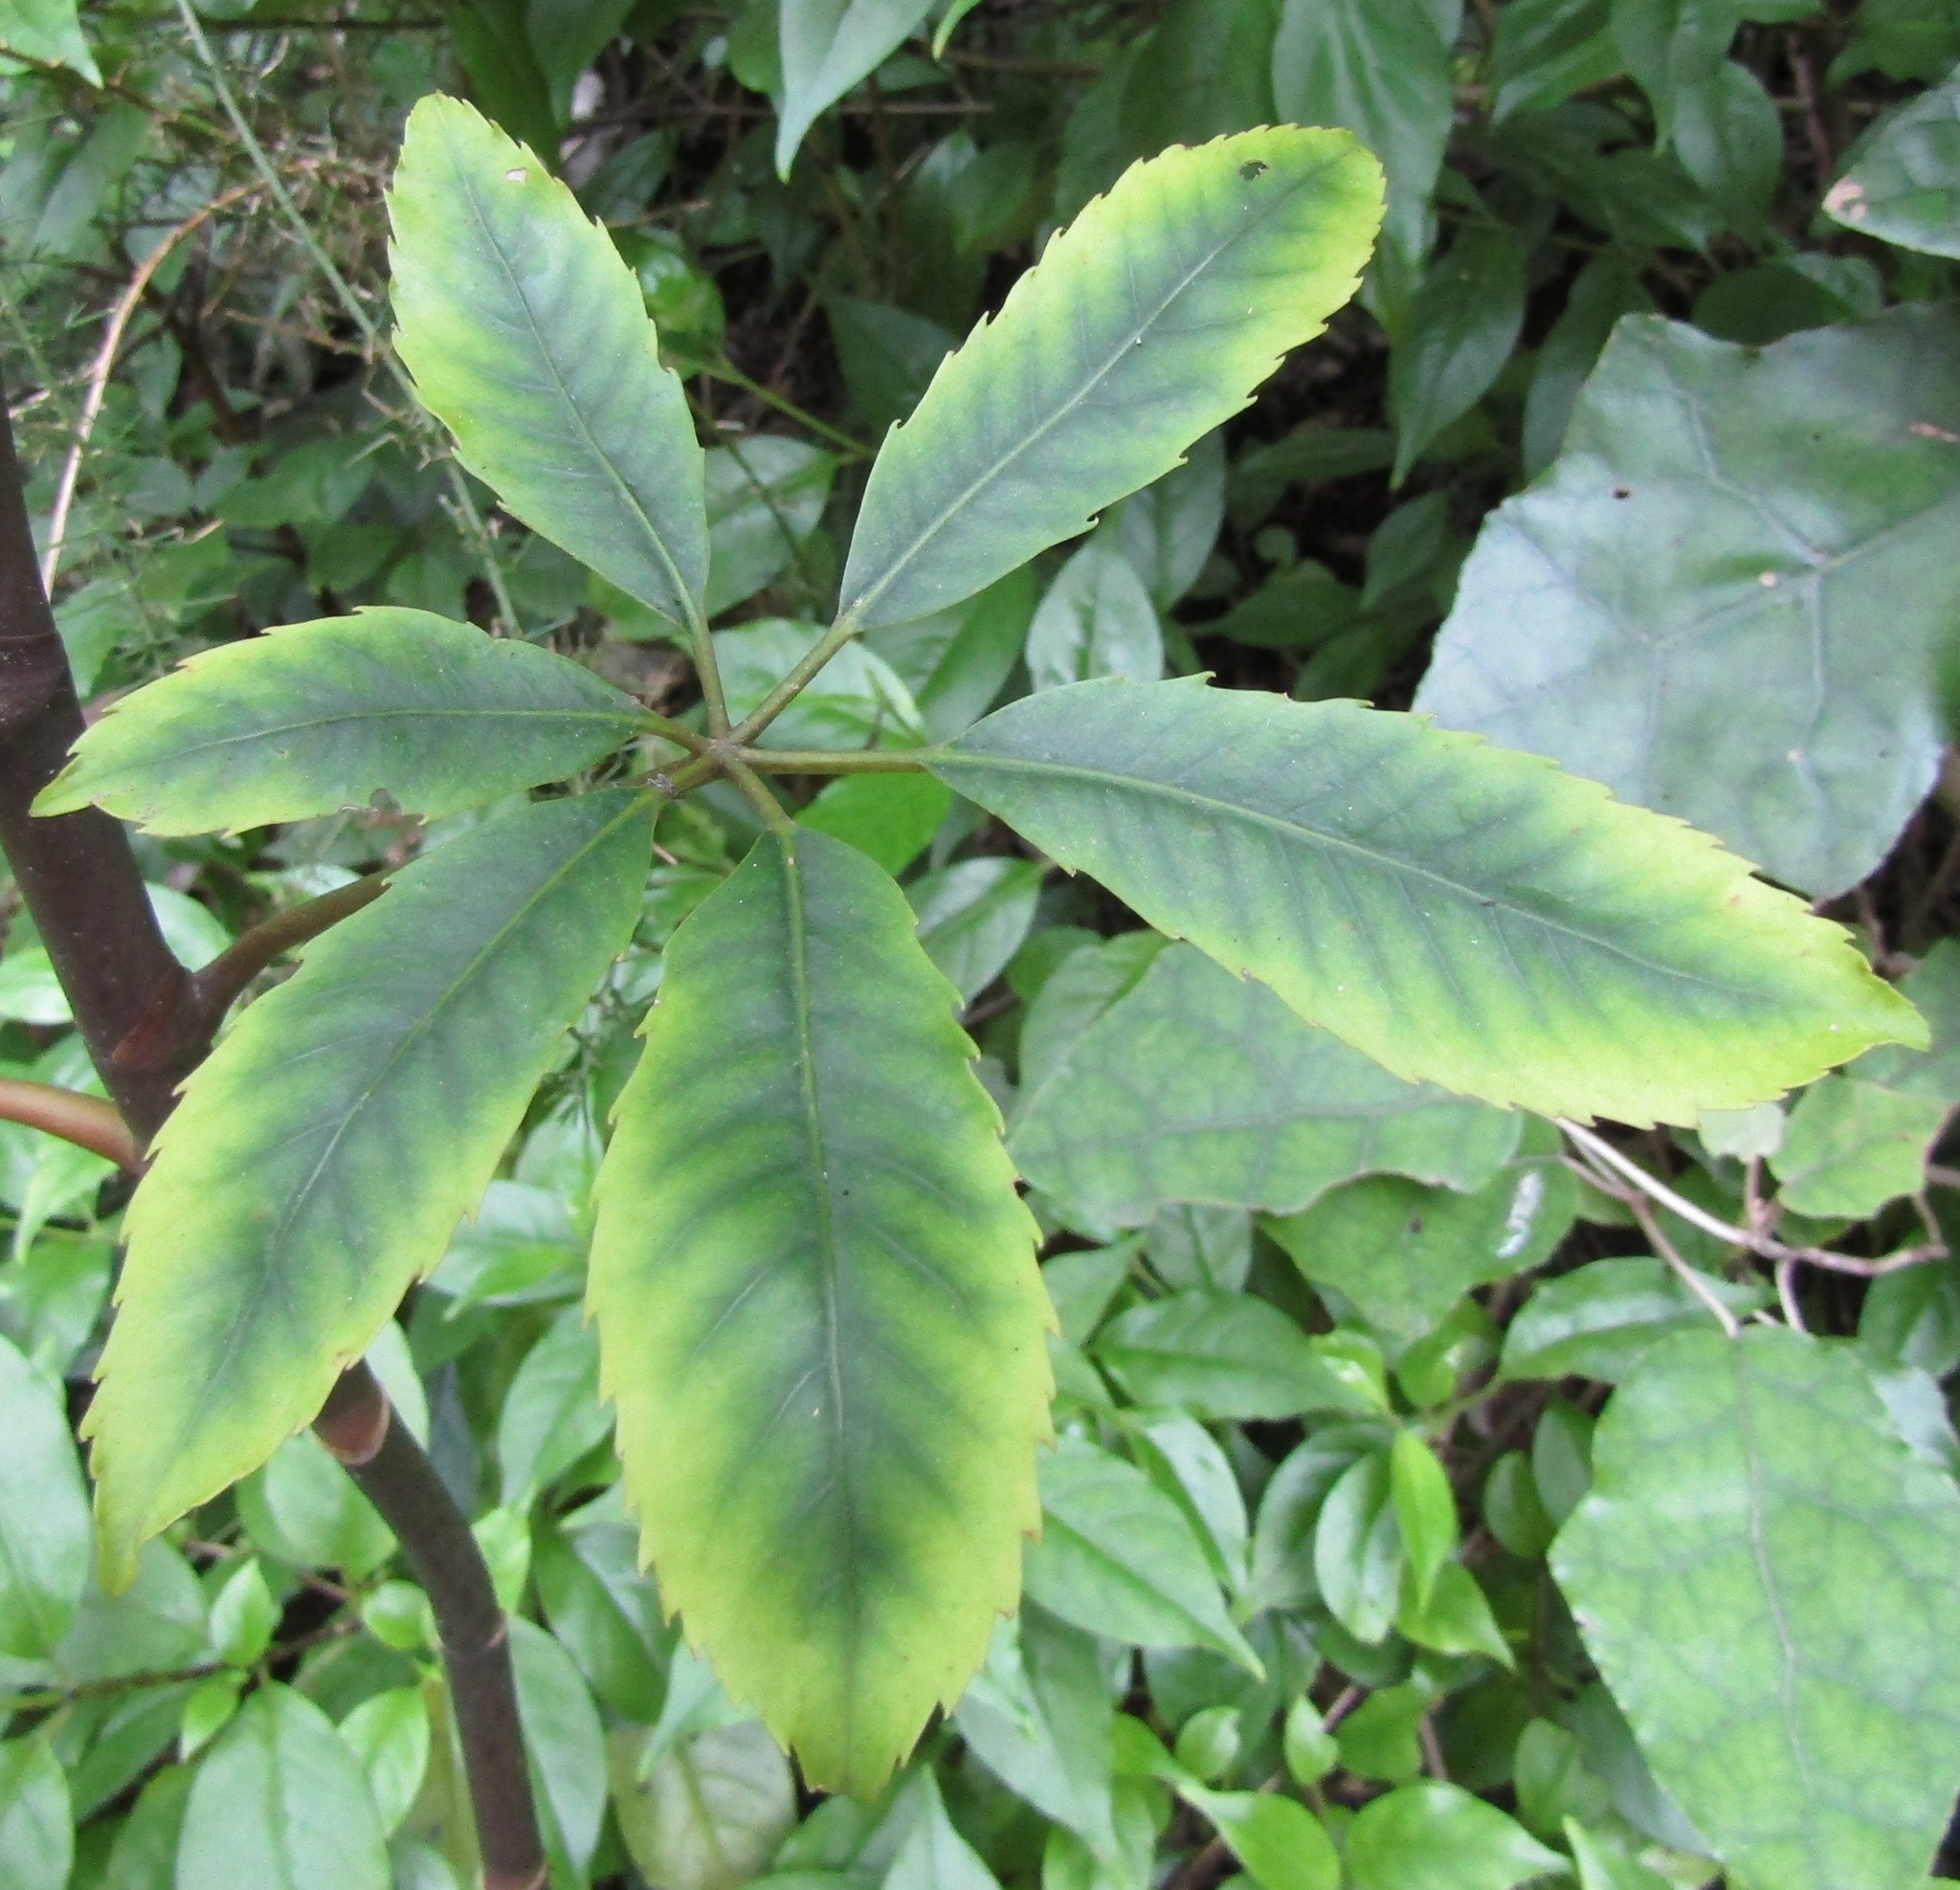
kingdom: Plantae
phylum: Tracheophyta
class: Magnoliopsida
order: Apiales
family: Araliaceae
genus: Neopanax
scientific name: Neopanax arboreus
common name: Five-fingers
